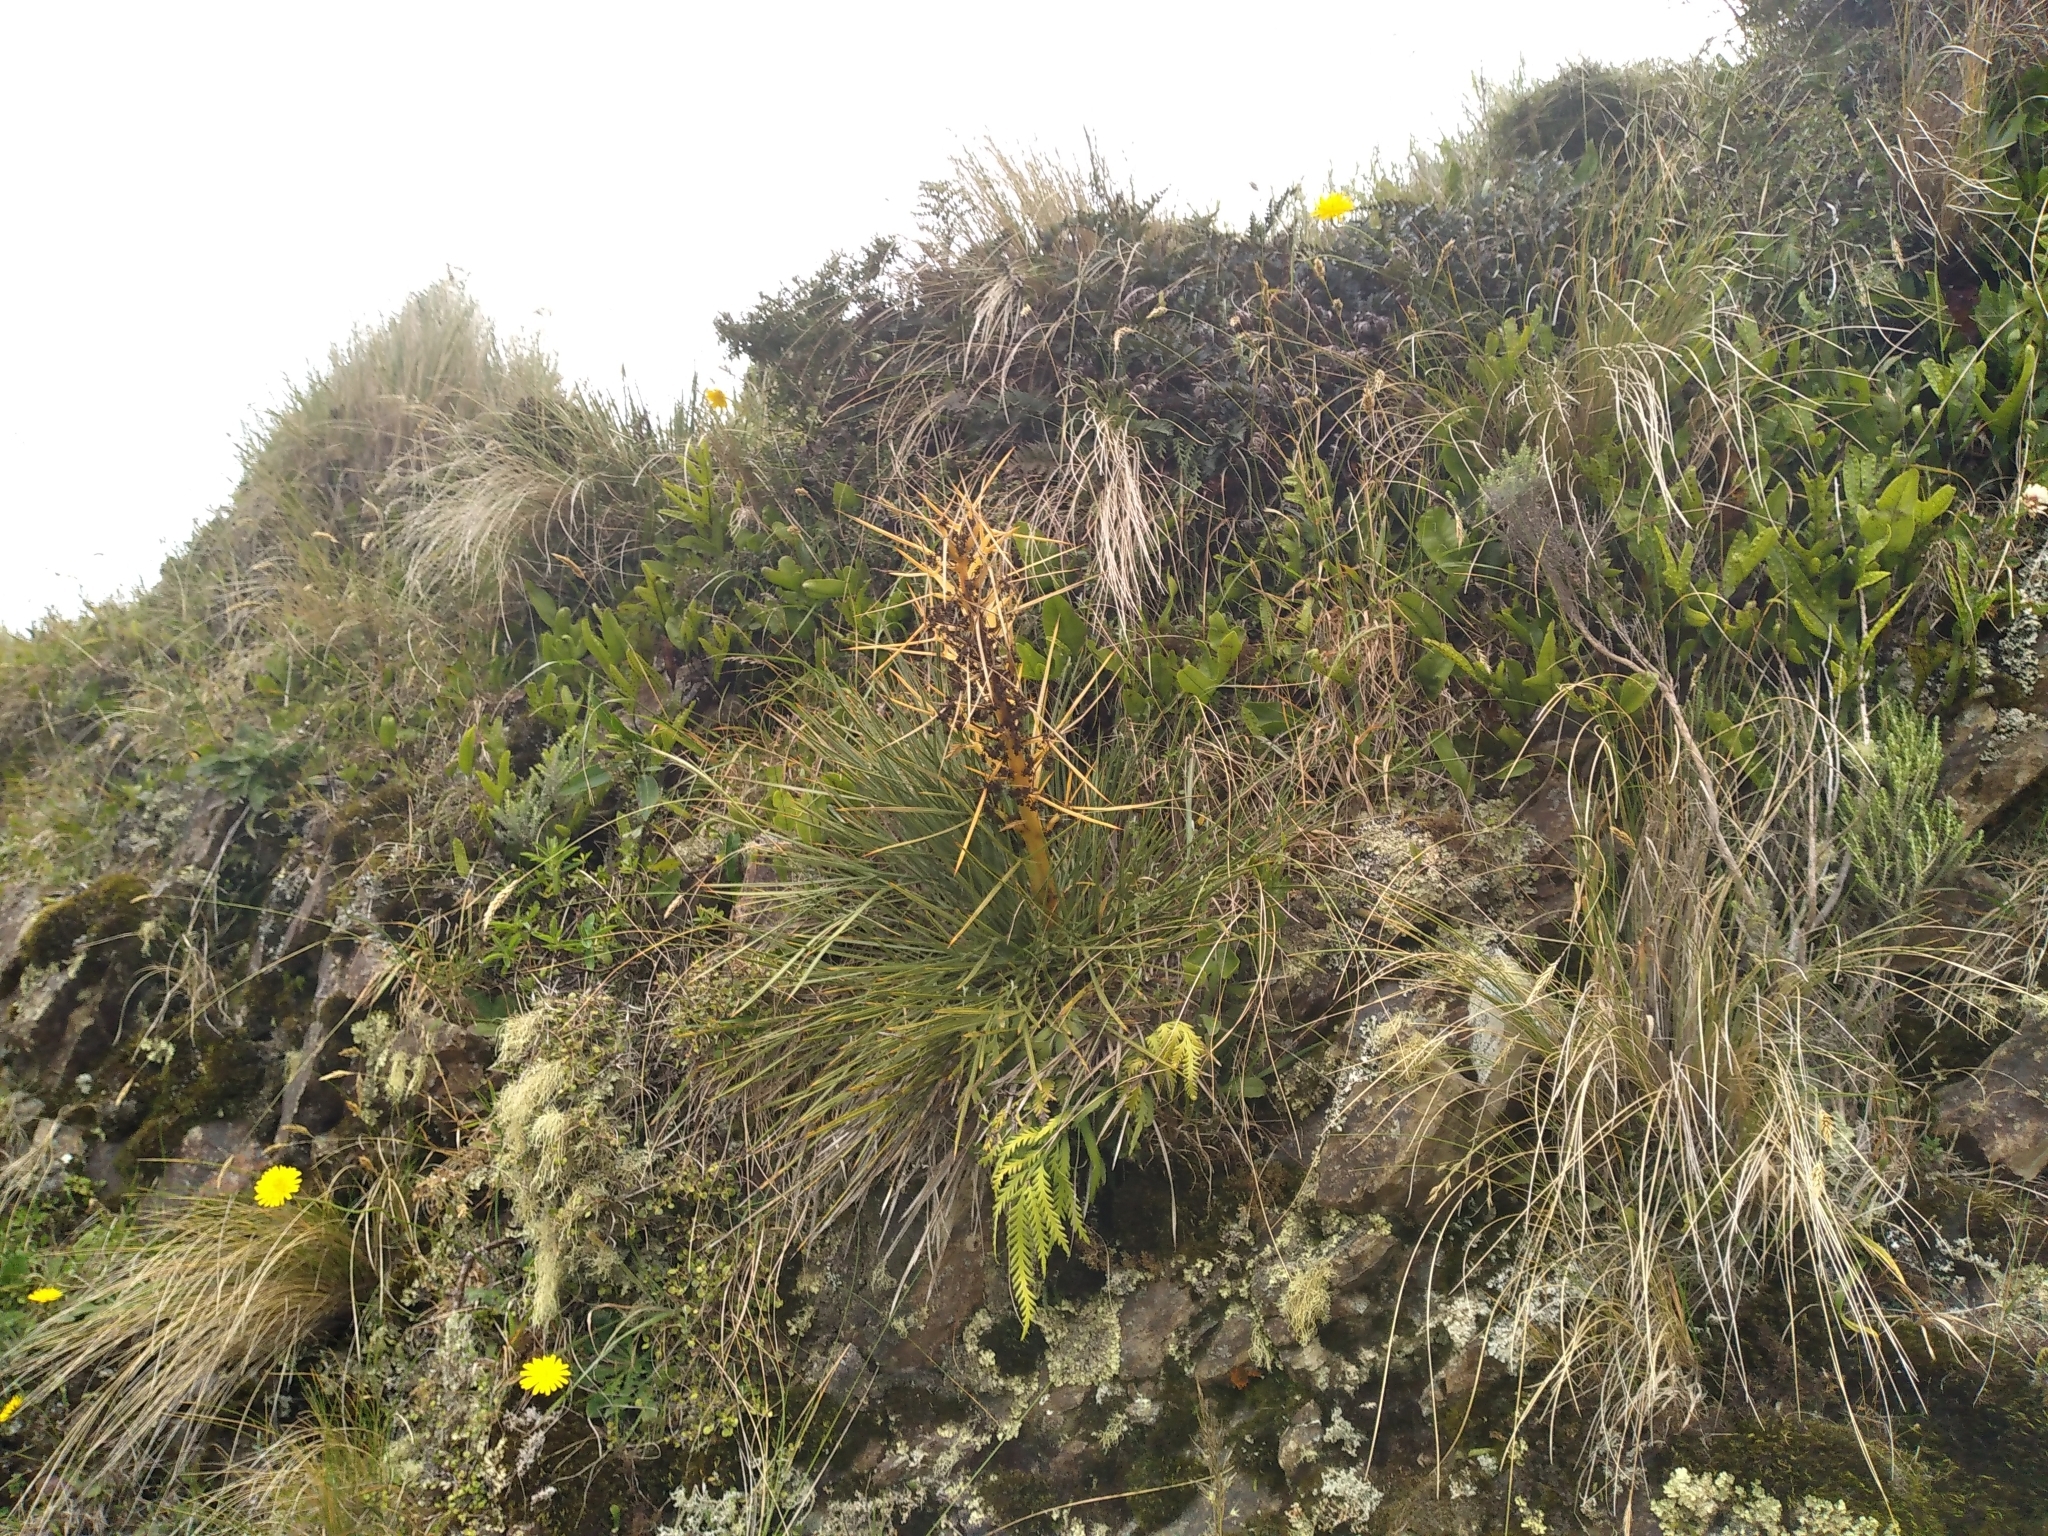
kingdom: Plantae
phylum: Tracheophyta
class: Magnoliopsida
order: Apiales
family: Apiaceae
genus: Aciphylla
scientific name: Aciphylla squarrosa
